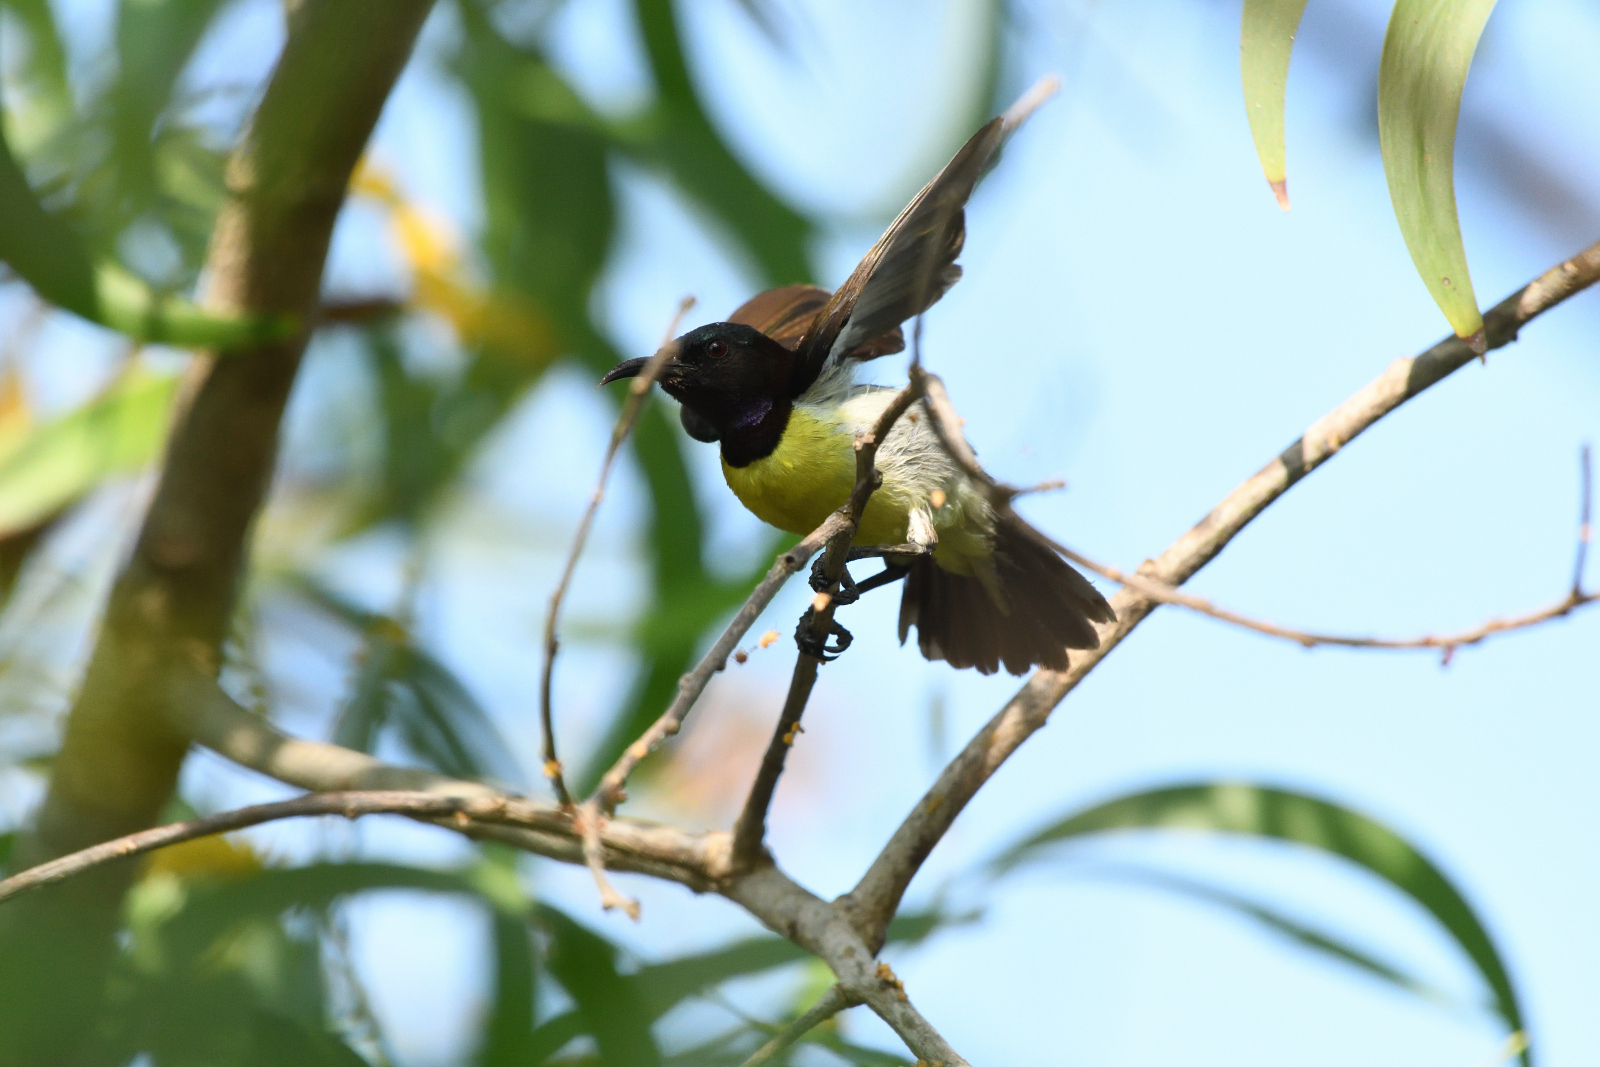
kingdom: Animalia
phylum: Chordata
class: Aves
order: Passeriformes
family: Nectariniidae
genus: Leptocoma
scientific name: Leptocoma zeylonica
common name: Purple-rumped sunbird
